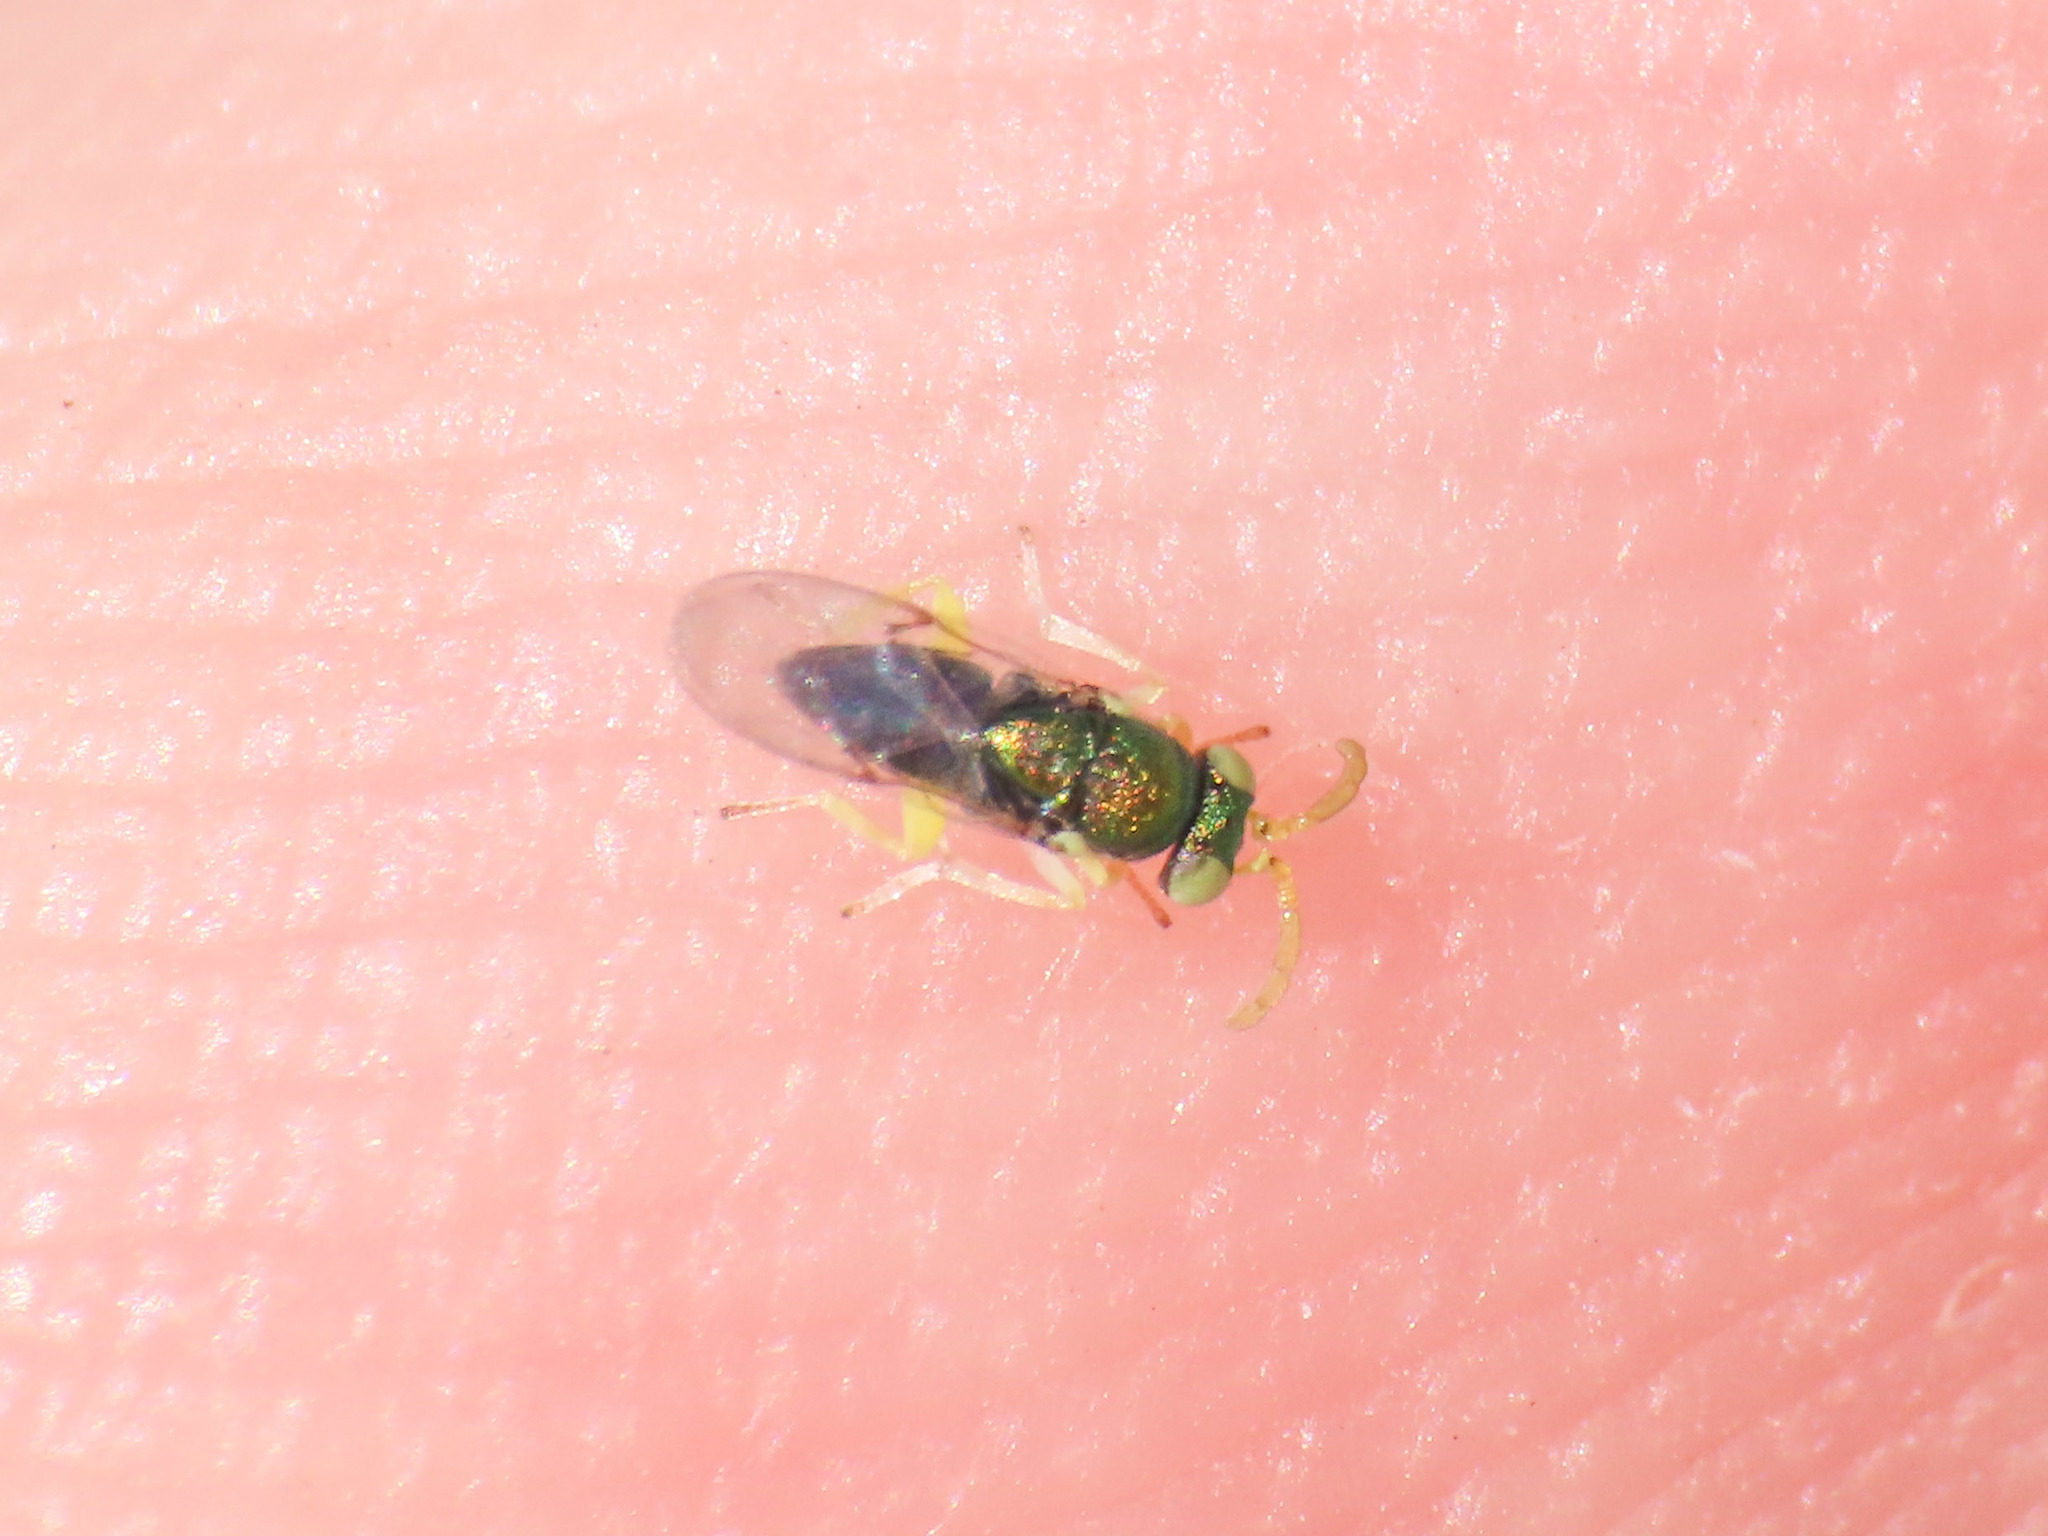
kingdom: Animalia
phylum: Arthropoda
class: Insecta
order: Hymenoptera
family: Encyrtidae
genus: Psyllaephagus
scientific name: Psyllaephagus bliteus
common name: Encyrtid wasp
